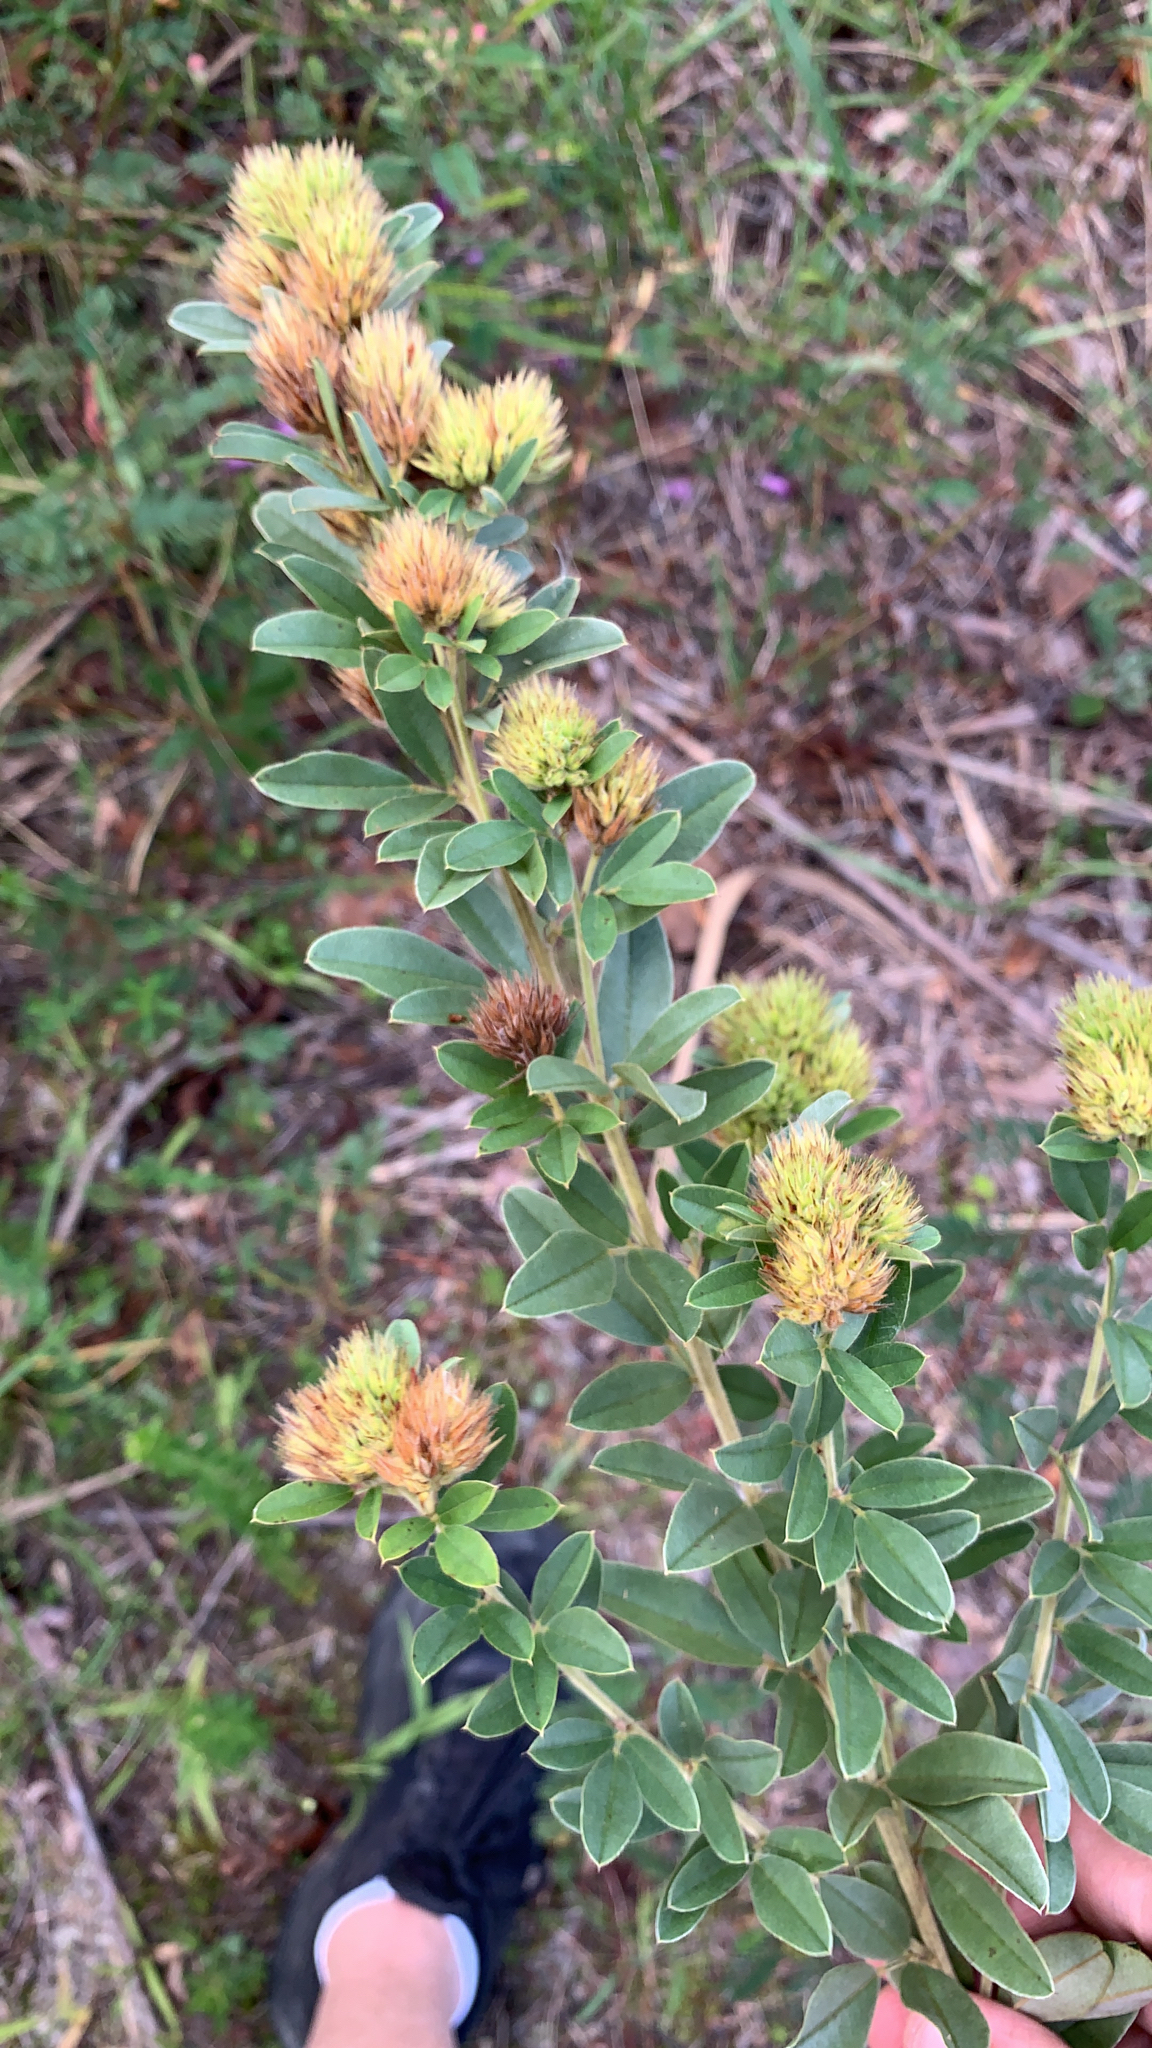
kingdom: Plantae
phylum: Tracheophyta
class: Magnoliopsida
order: Fabales
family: Fabaceae
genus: Lespedeza
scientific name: Lespedeza capitata
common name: Dusty clover
